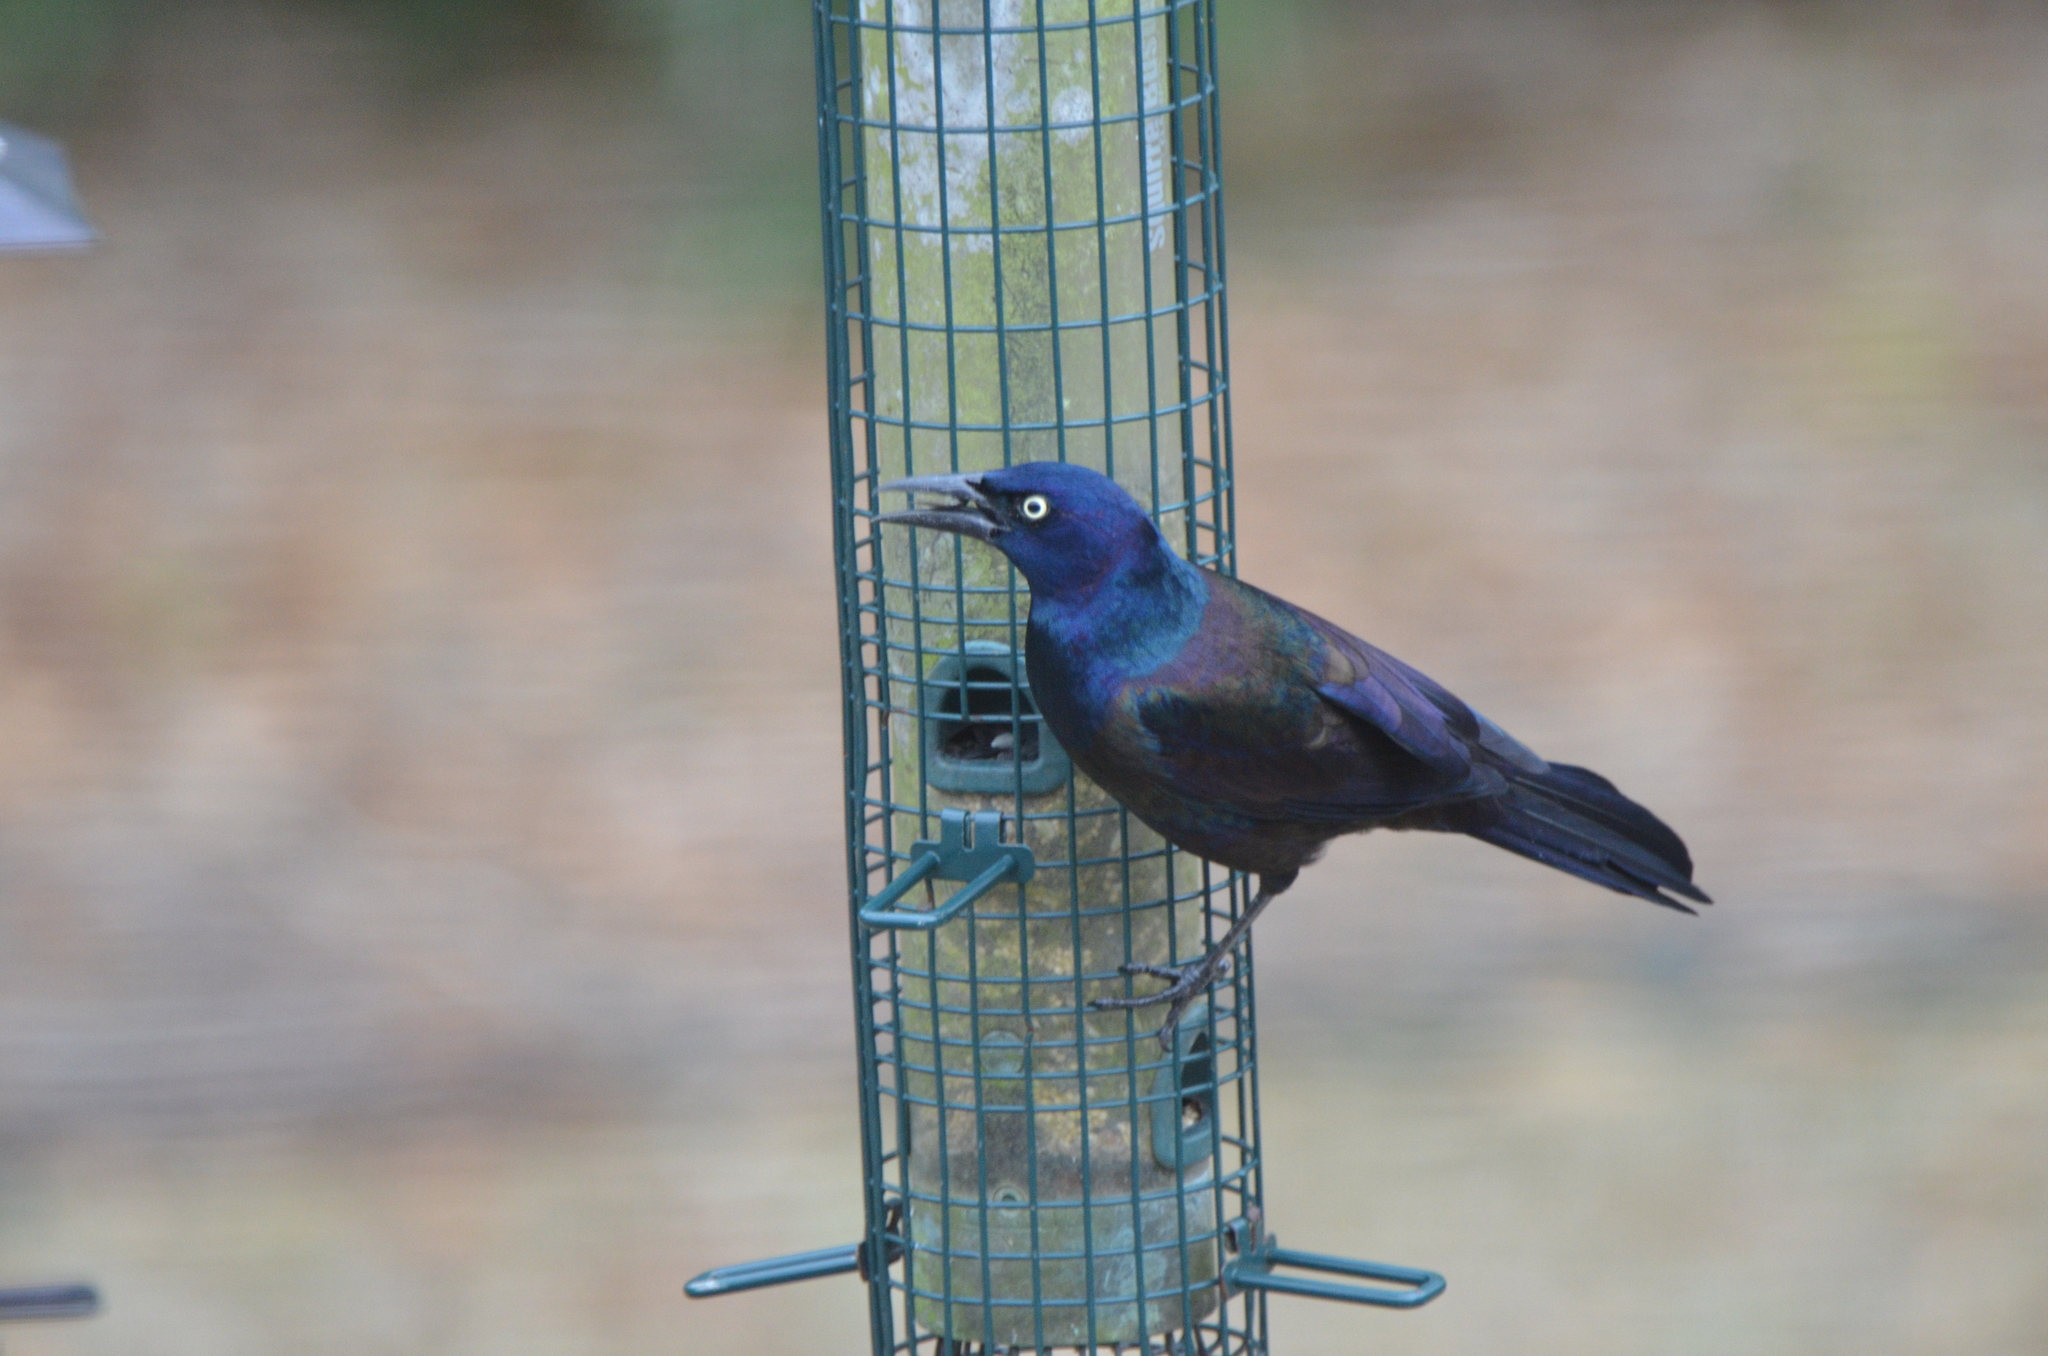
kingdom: Animalia
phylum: Chordata
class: Aves
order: Passeriformes
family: Icteridae
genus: Quiscalus
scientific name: Quiscalus quiscula
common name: Common grackle
